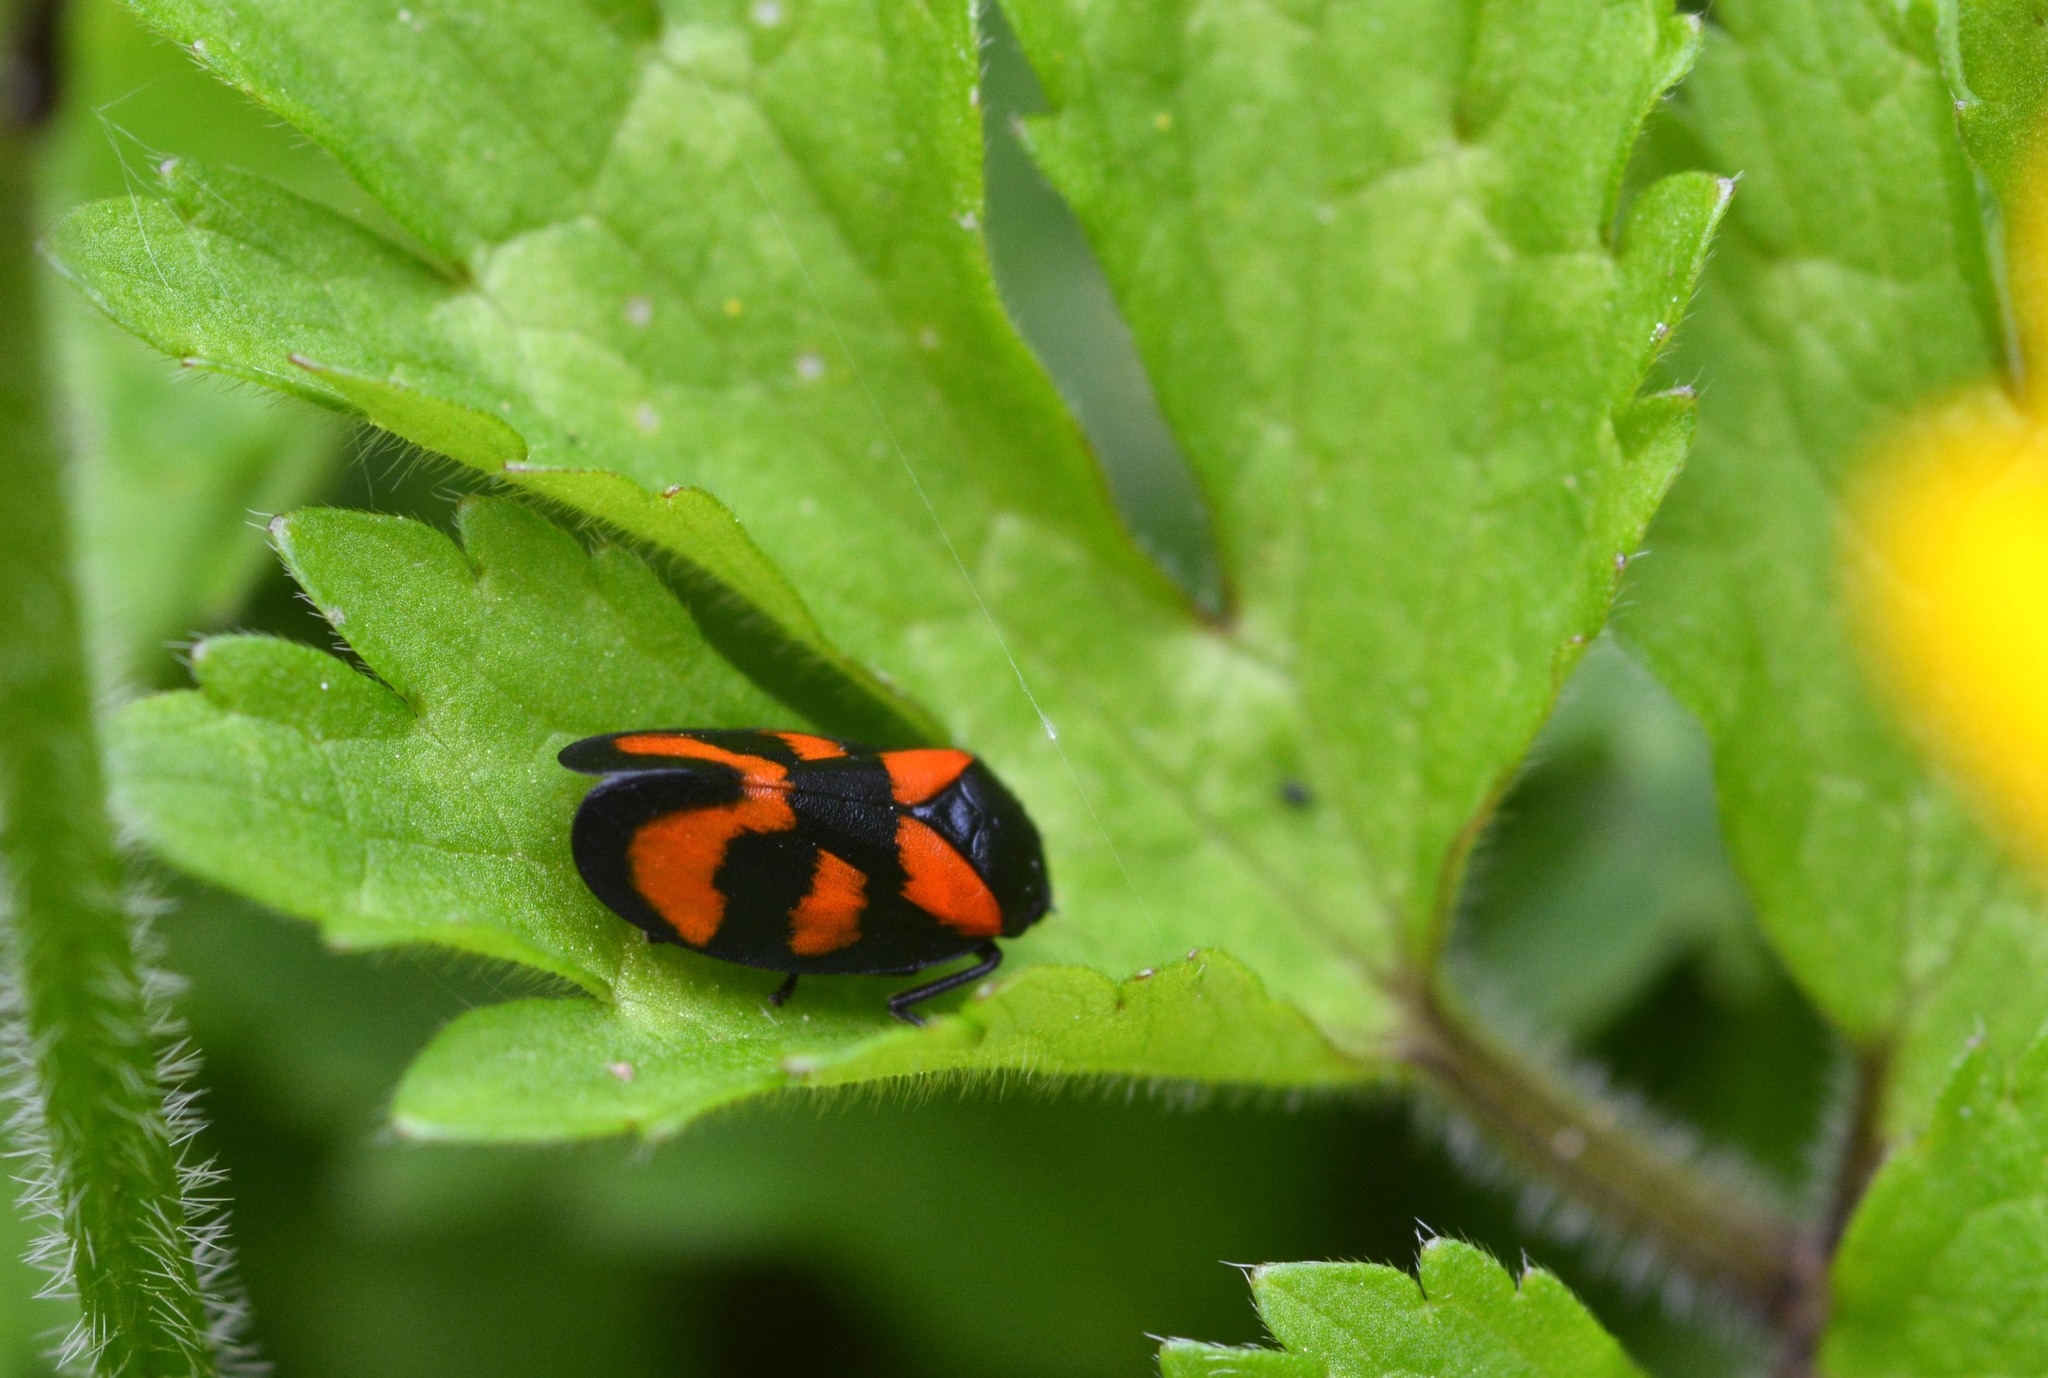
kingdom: Animalia
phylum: Arthropoda
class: Insecta
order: Hemiptera
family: Cercopidae
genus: Cercopis
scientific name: Cercopis vulnerata
